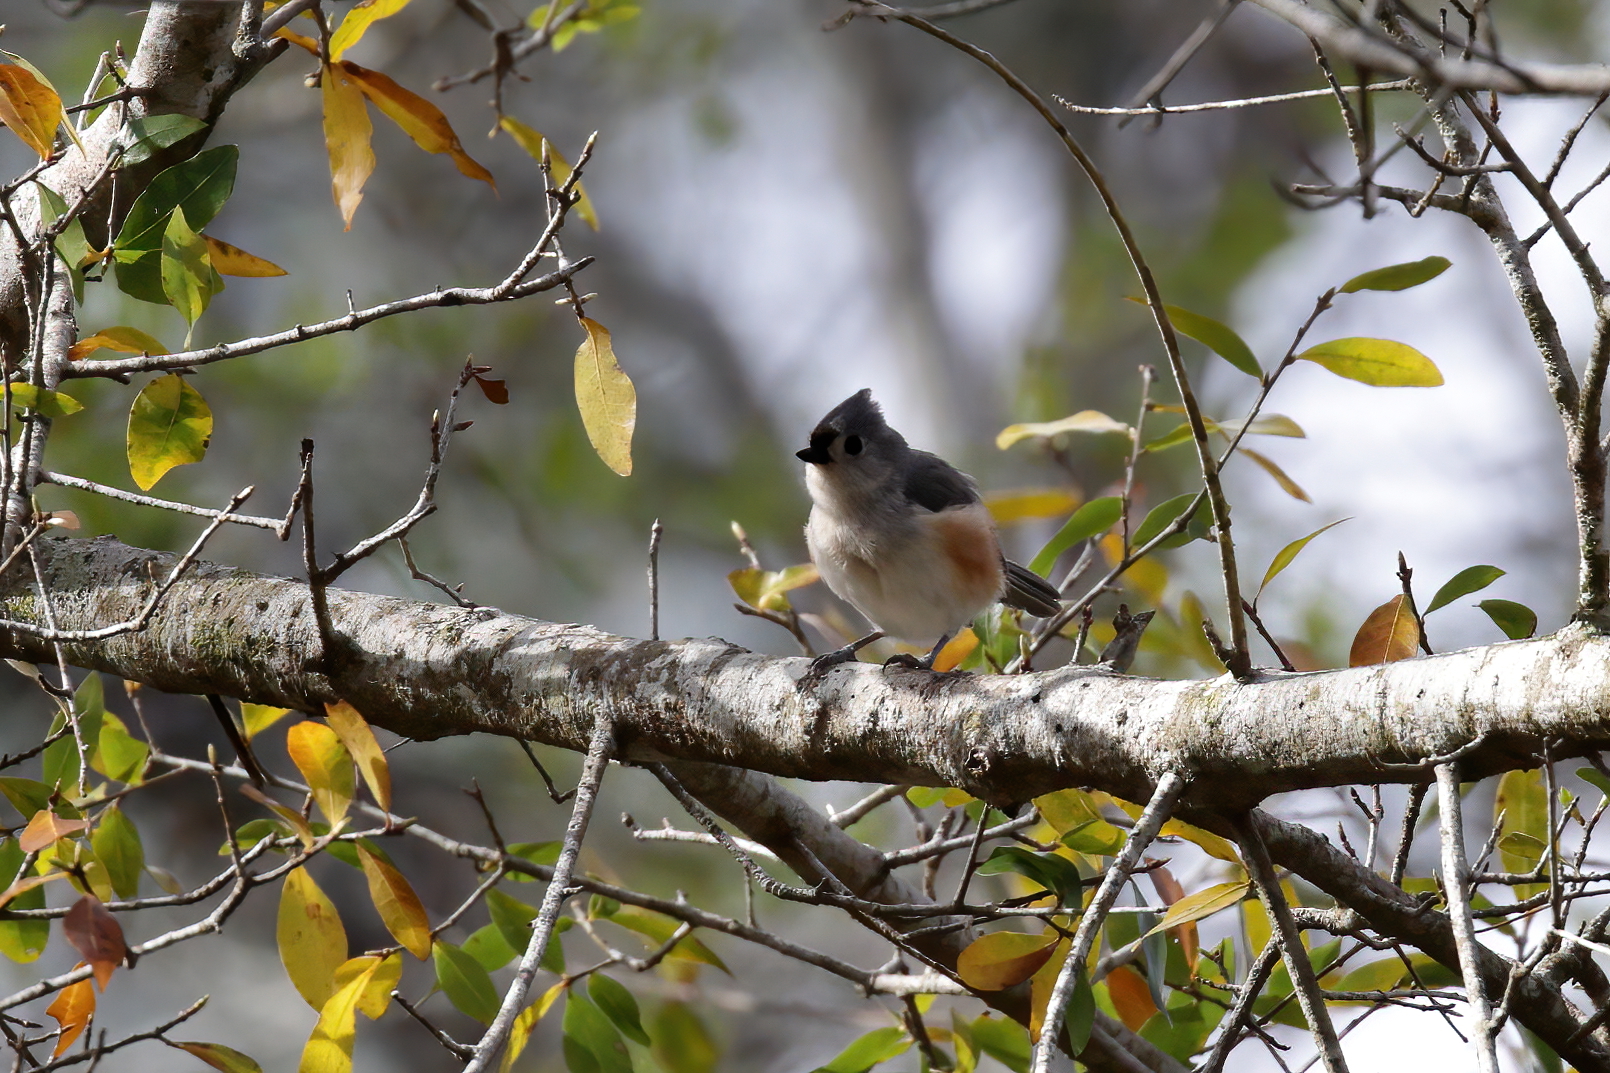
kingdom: Animalia
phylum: Chordata
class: Aves
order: Passeriformes
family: Paridae
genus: Baeolophus
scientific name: Baeolophus bicolor
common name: Tufted titmouse
